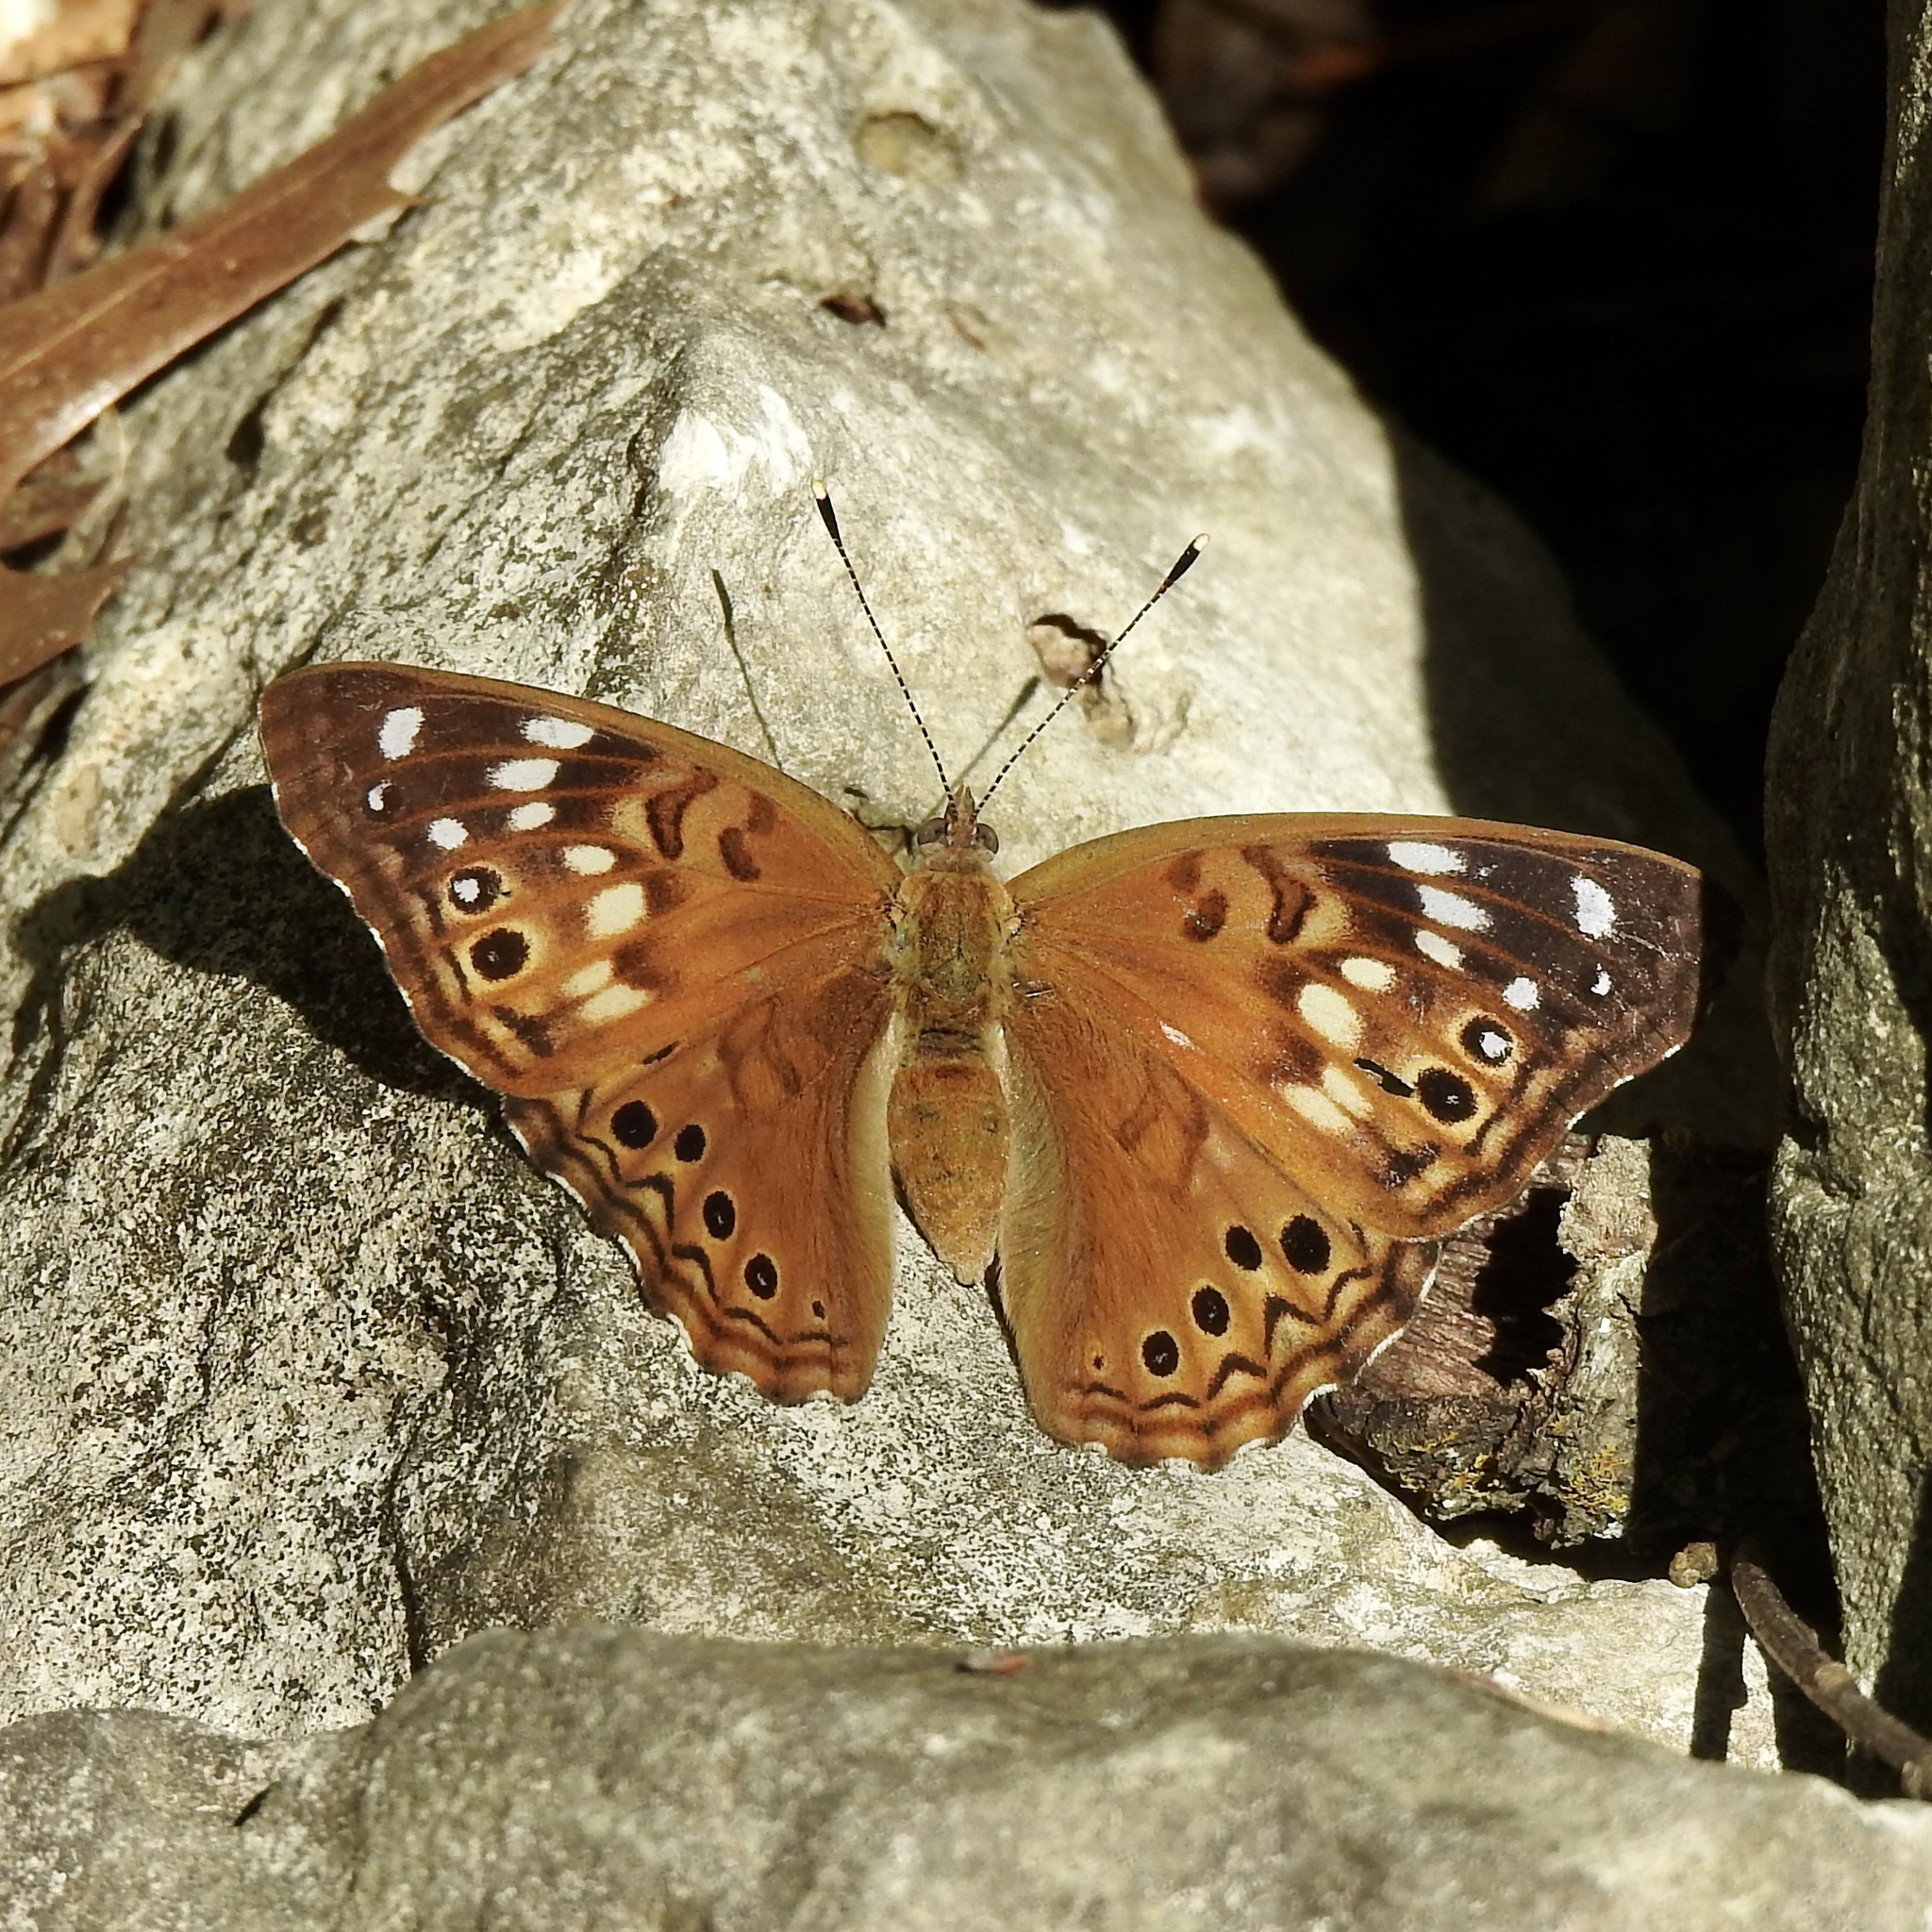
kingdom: Animalia
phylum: Arthropoda
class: Insecta
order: Lepidoptera
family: Nymphalidae
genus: Asterocampa
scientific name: Asterocampa celtis
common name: Hackberry emperor
